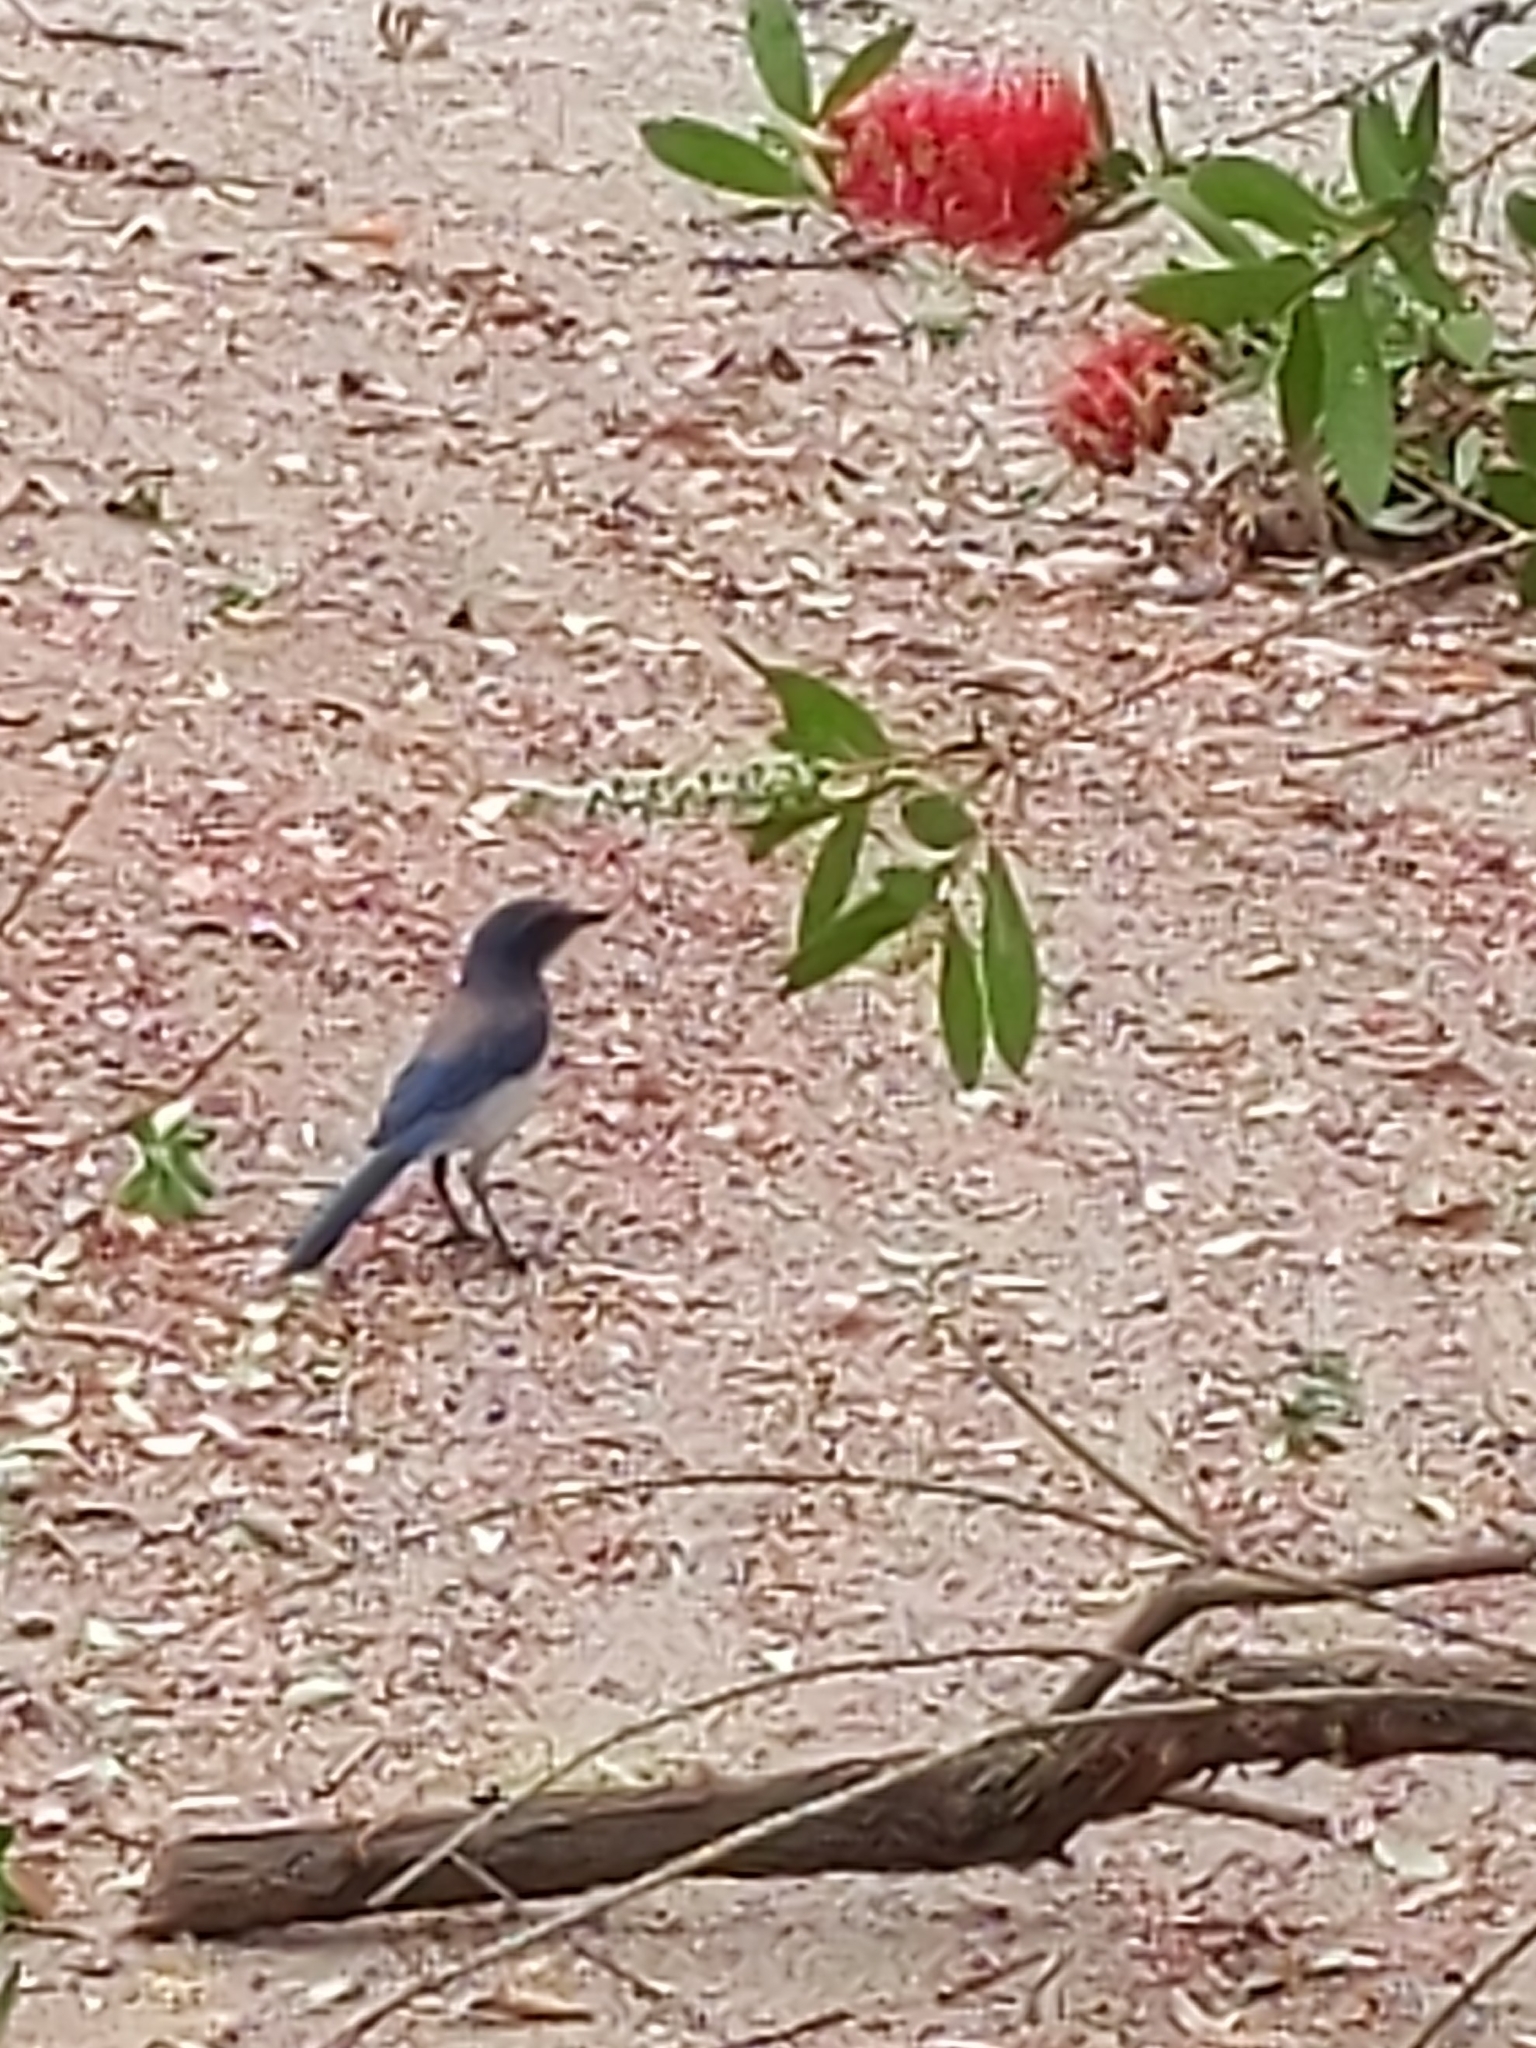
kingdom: Animalia
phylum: Chordata
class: Aves
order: Passeriformes
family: Corvidae
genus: Aphelocoma
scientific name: Aphelocoma californica
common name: California scrub-jay
